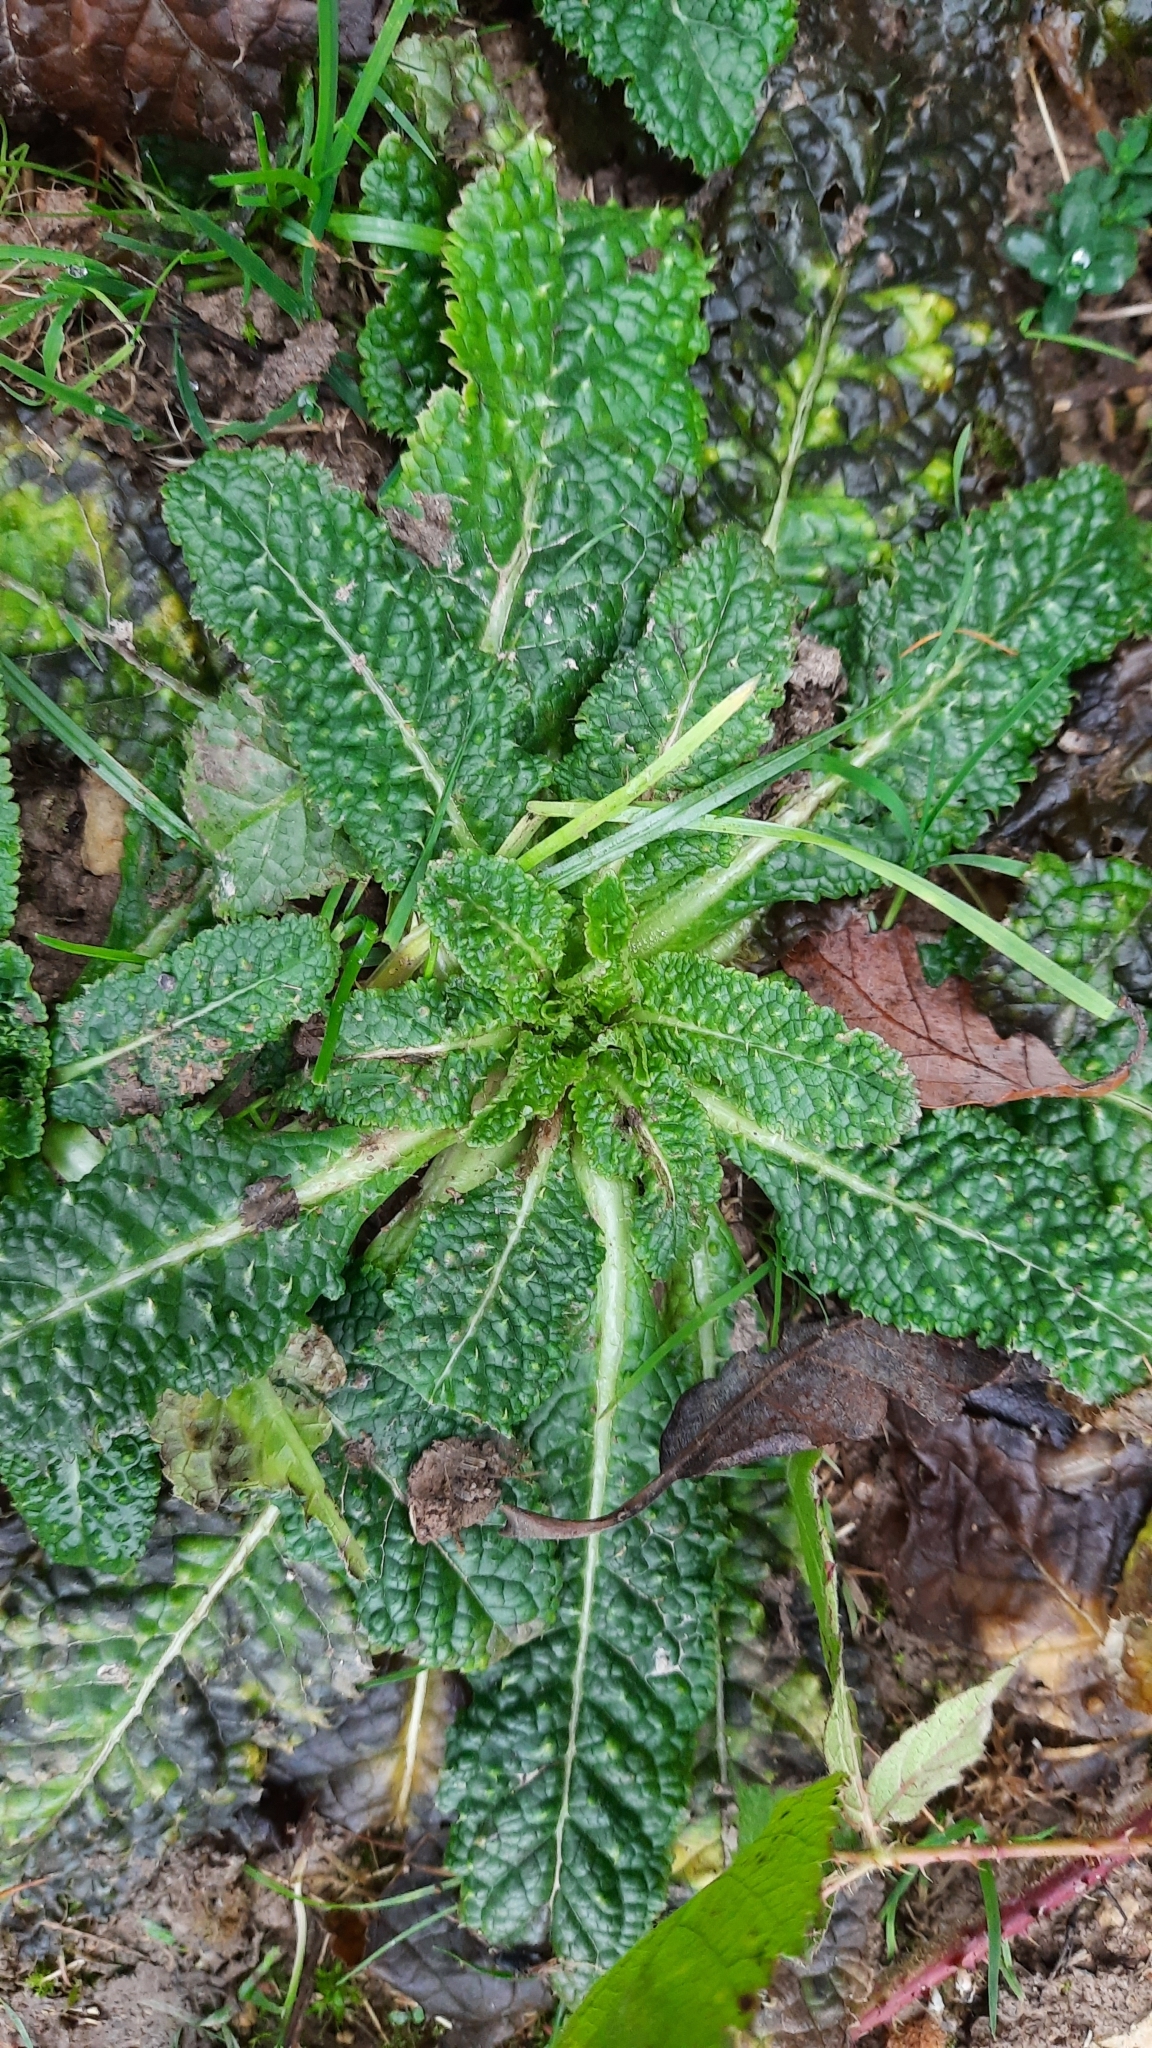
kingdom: Plantae
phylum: Tracheophyta
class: Magnoliopsida
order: Dipsacales
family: Caprifoliaceae
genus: Dipsacus
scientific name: Dipsacus fullonum
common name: Teasel
